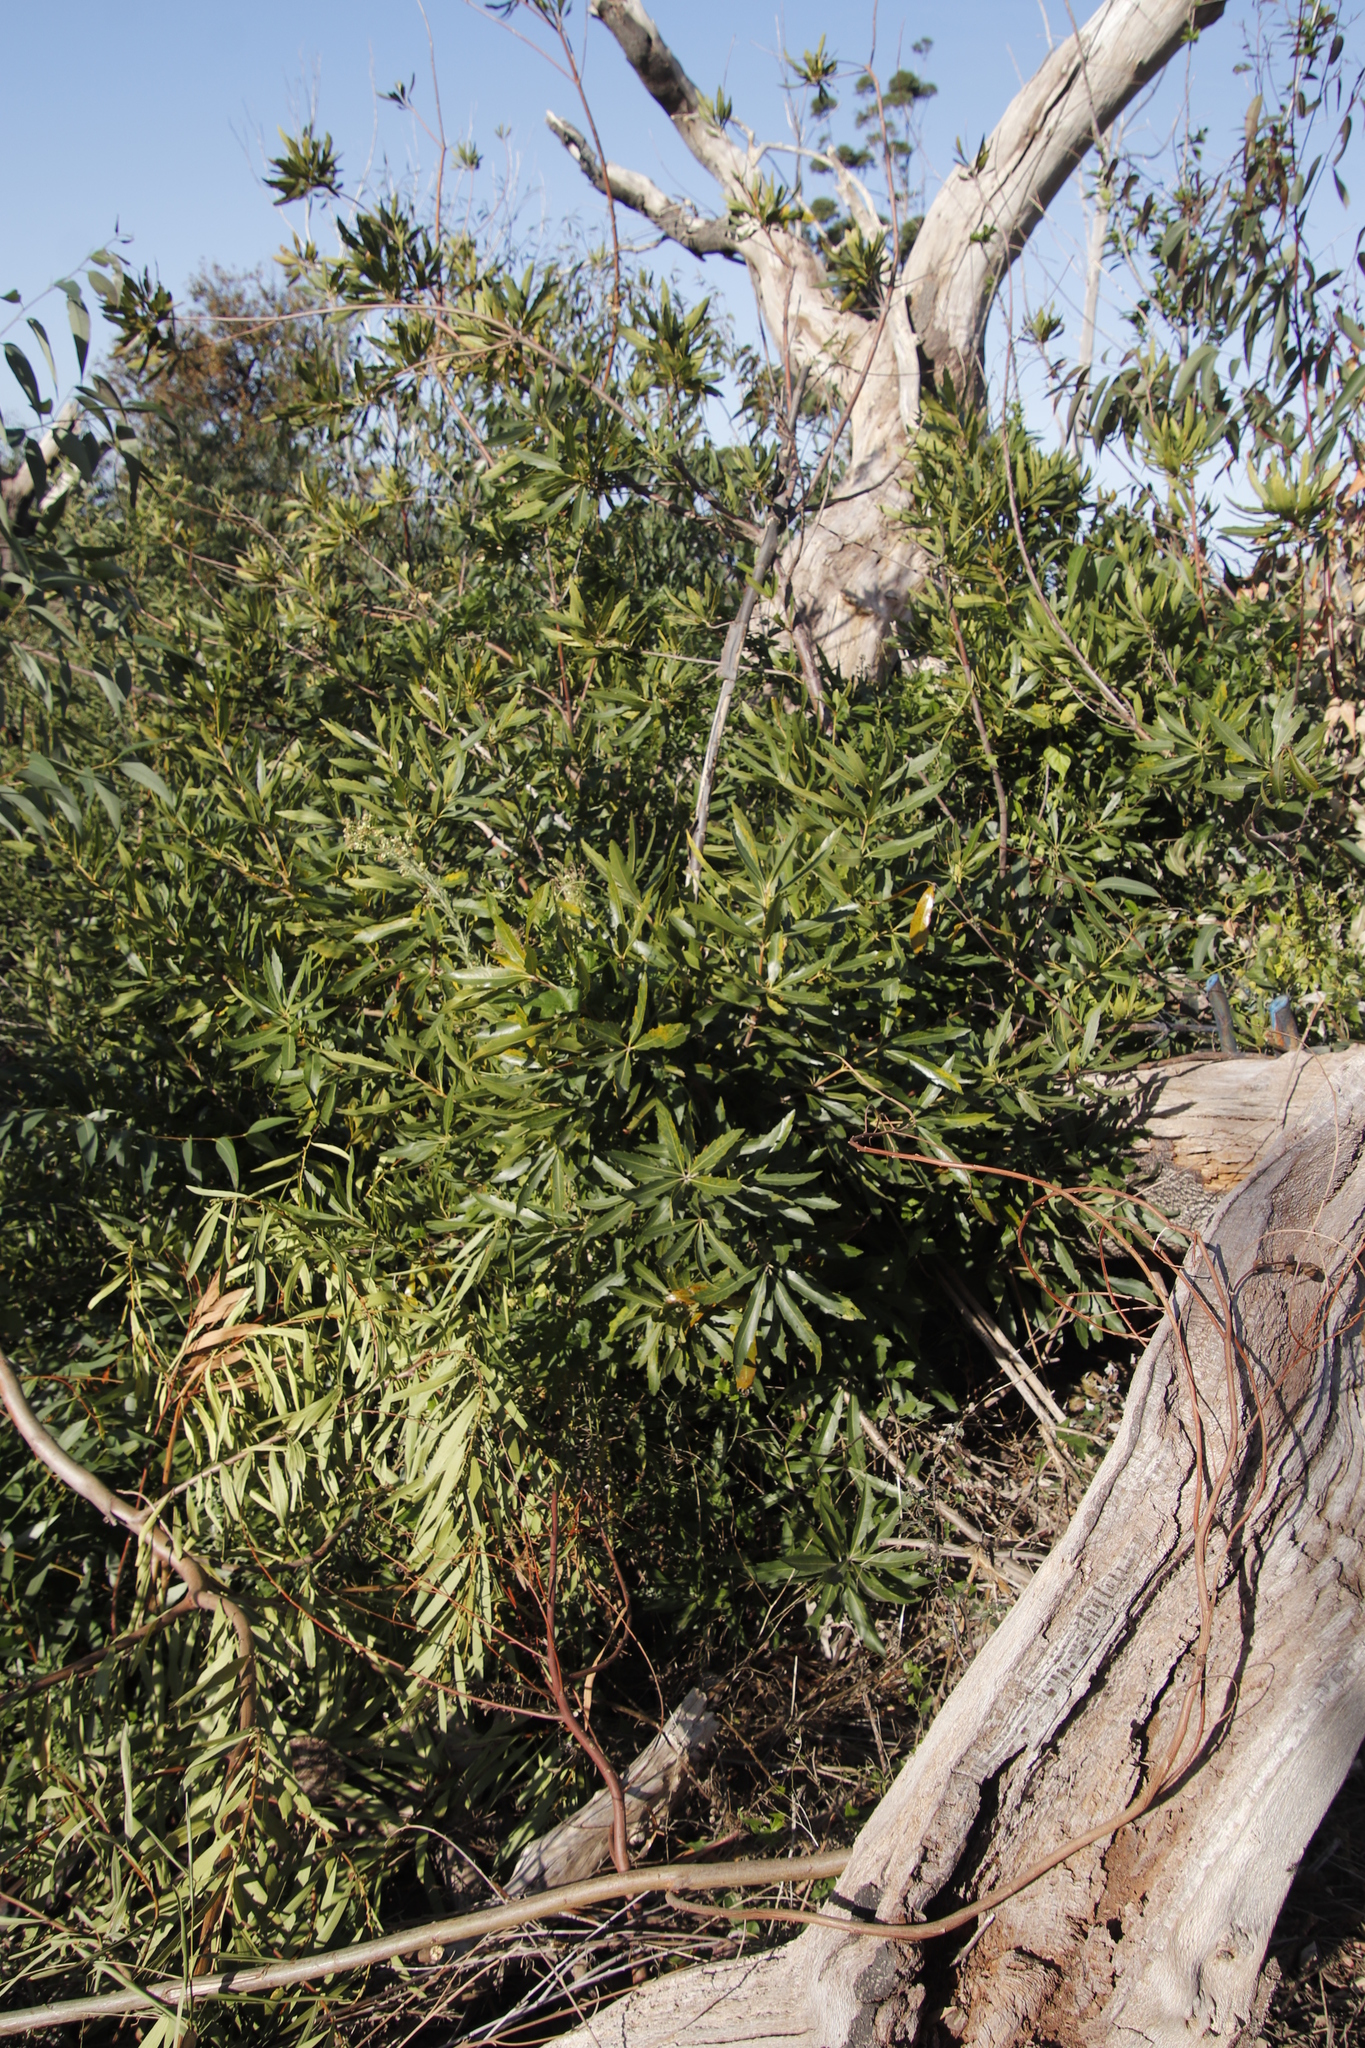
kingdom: Plantae
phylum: Tracheophyta
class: Magnoliopsida
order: Proteales
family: Proteaceae
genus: Brabejum
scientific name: Brabejum stellatifolium
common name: Wild almond
